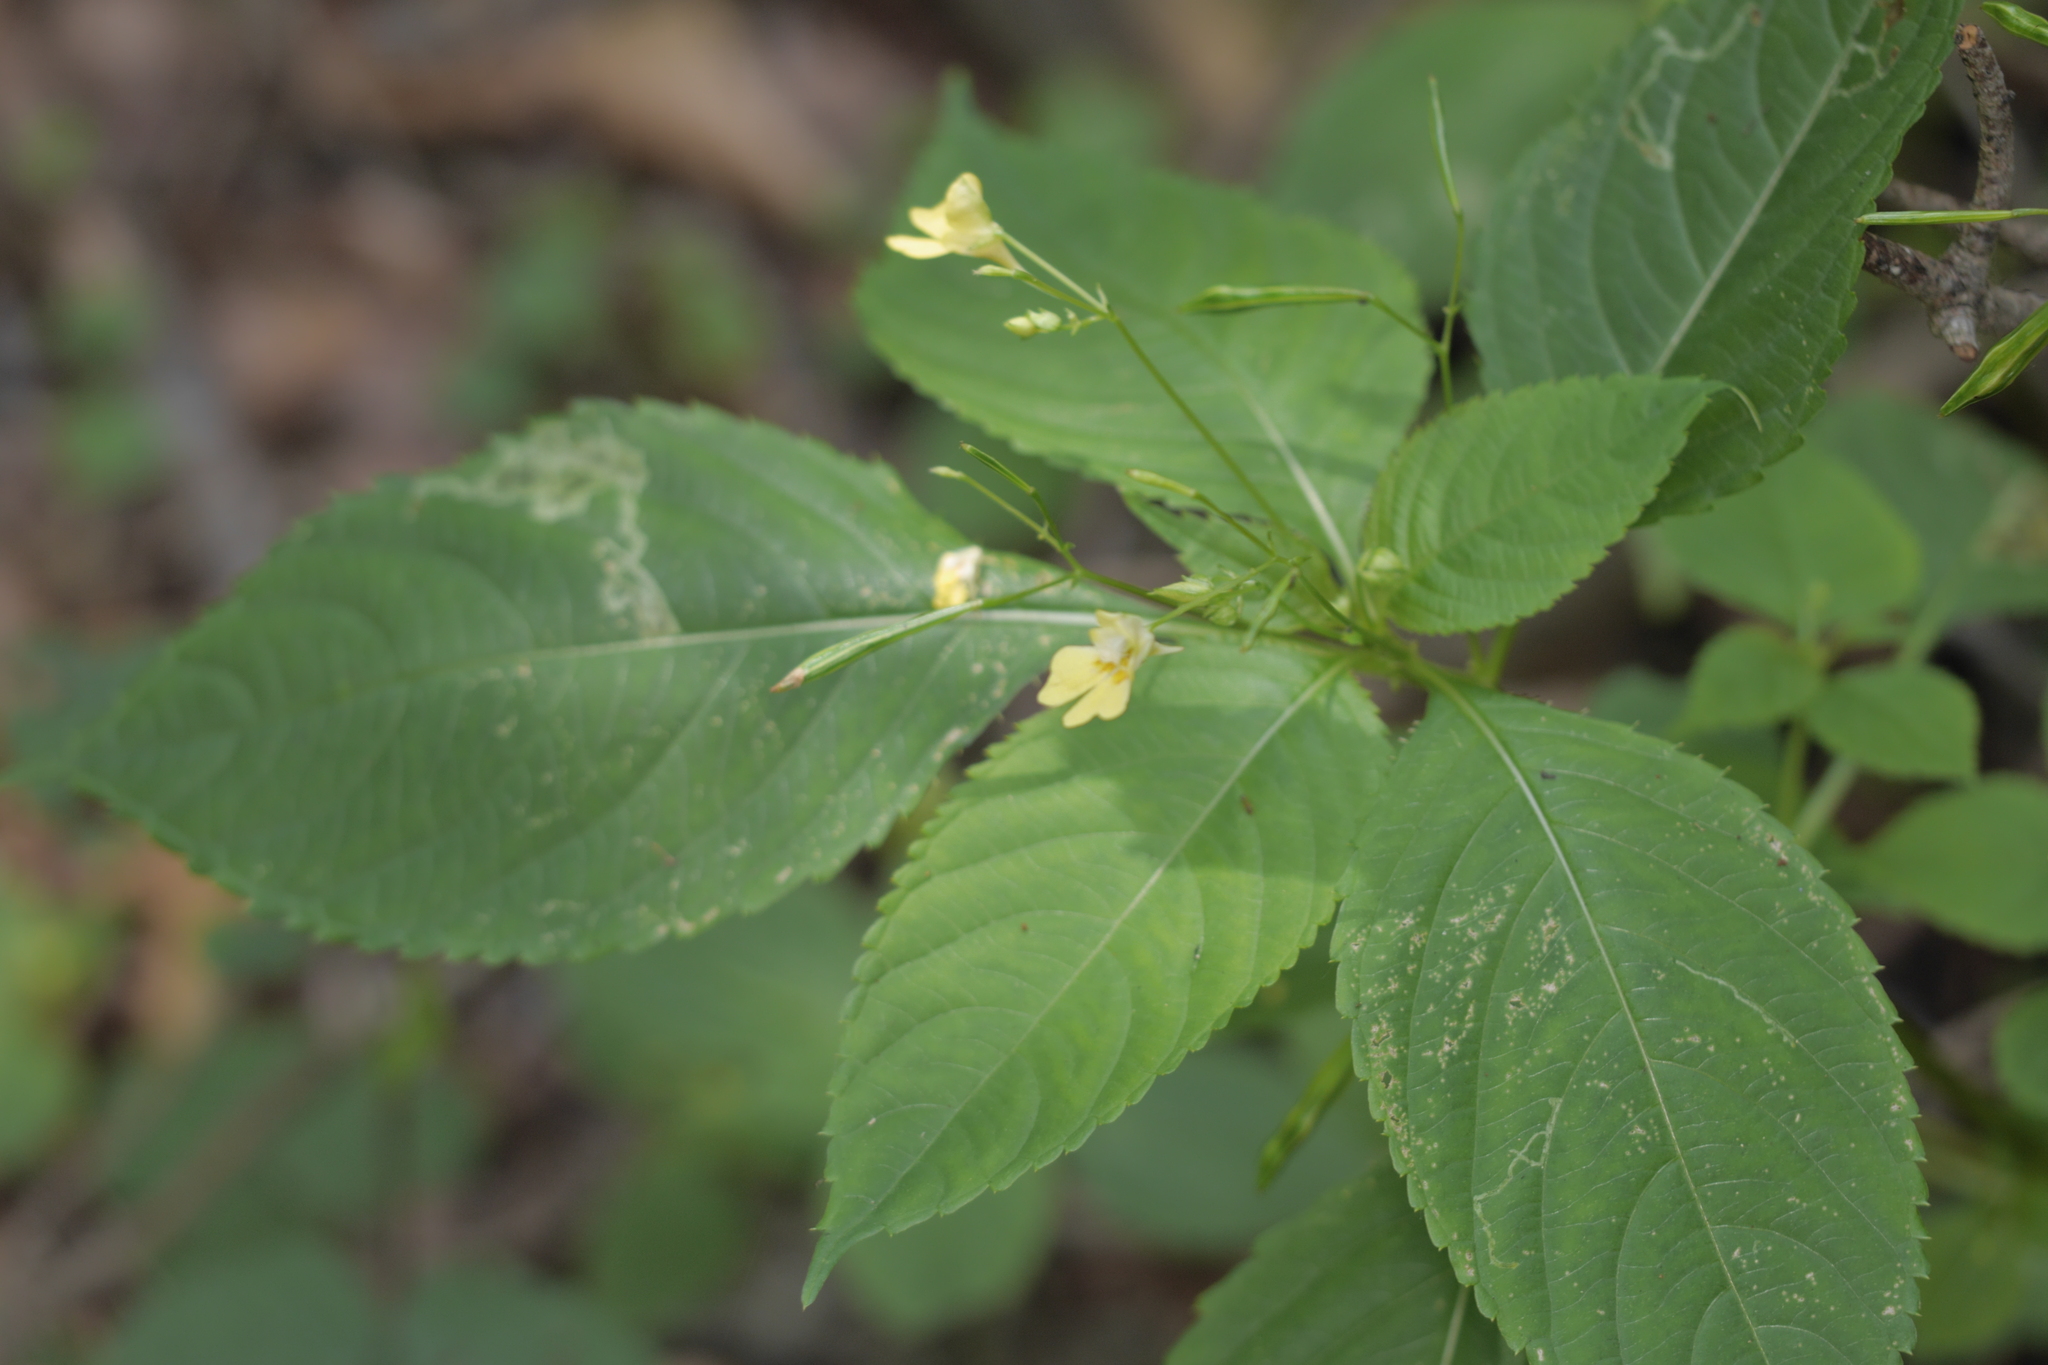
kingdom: Plantae
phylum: Tracheophyta
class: Magnoliopsida
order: Ericales
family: Balsaminaceae
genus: Impatiens
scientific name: Impatiens parviflora
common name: Small balsam
